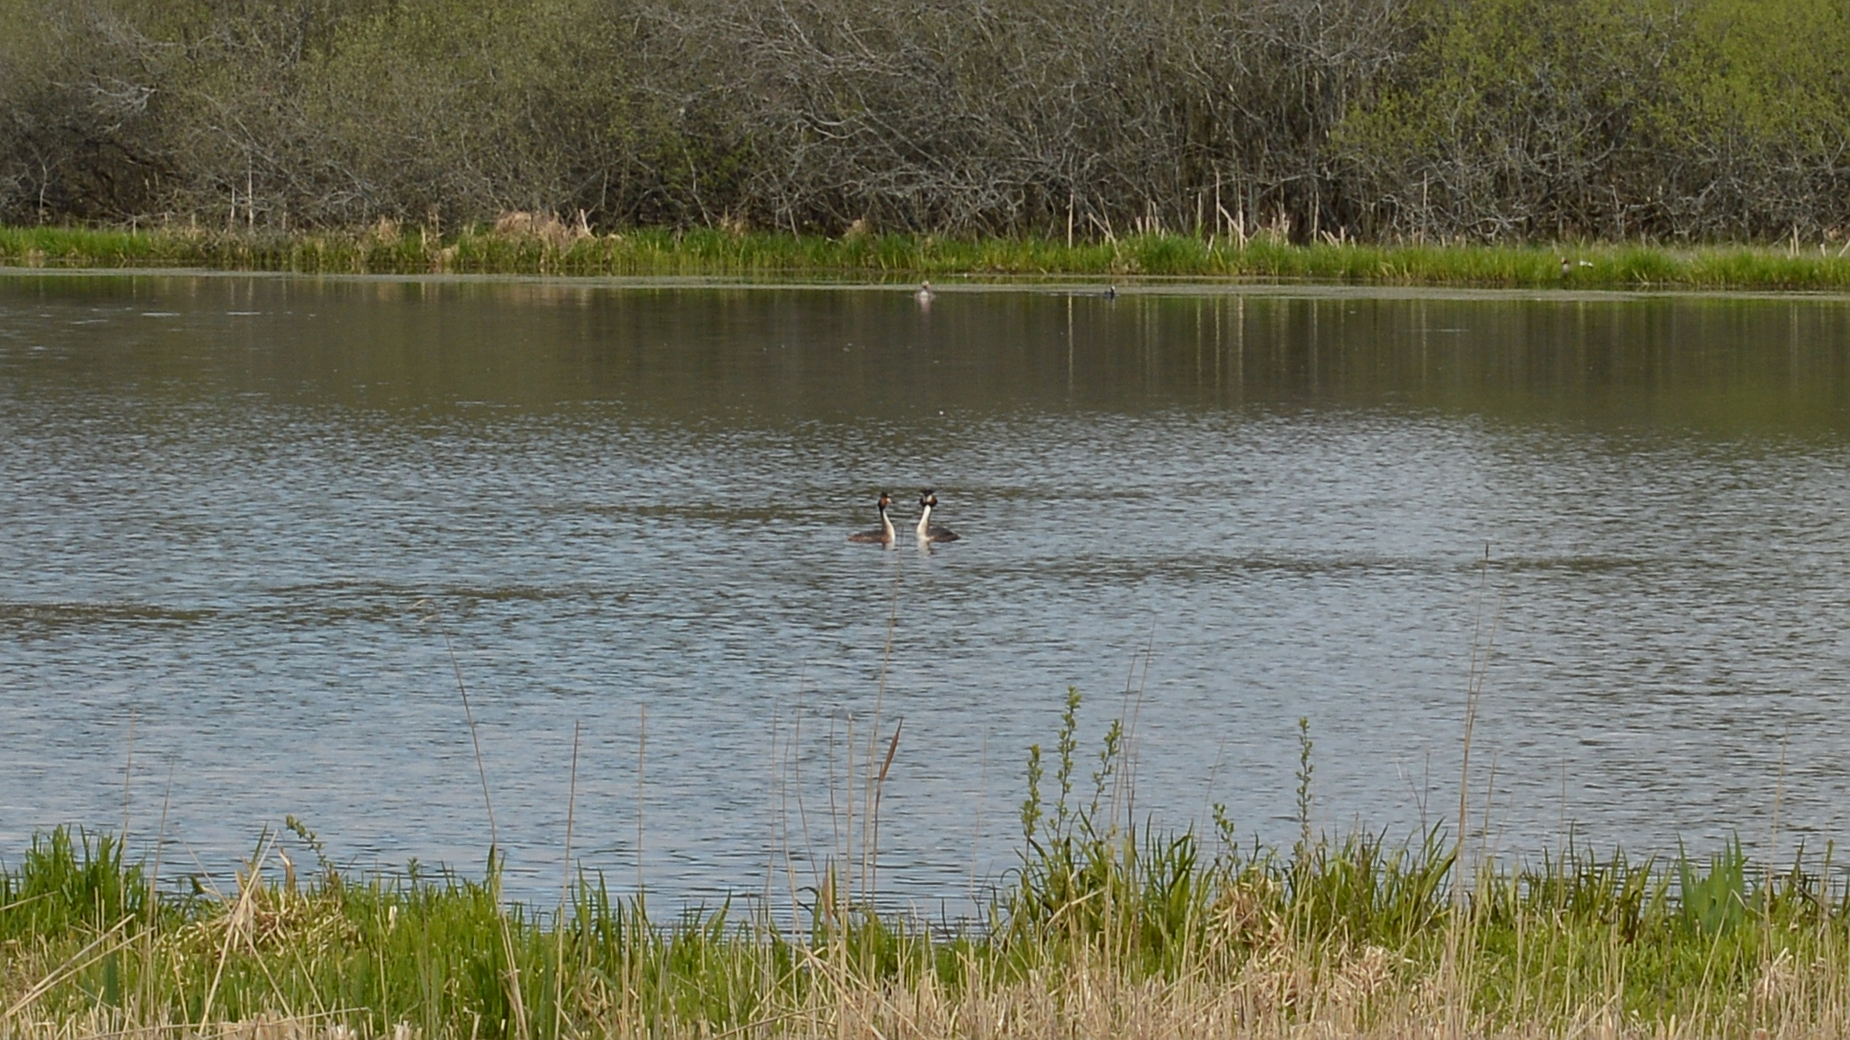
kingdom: Animalia
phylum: Chordata
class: Aves
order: Podicipediformes
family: Podicipedidae
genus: Podiceps
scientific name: Podiceps cristatus
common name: Great crested grebe
